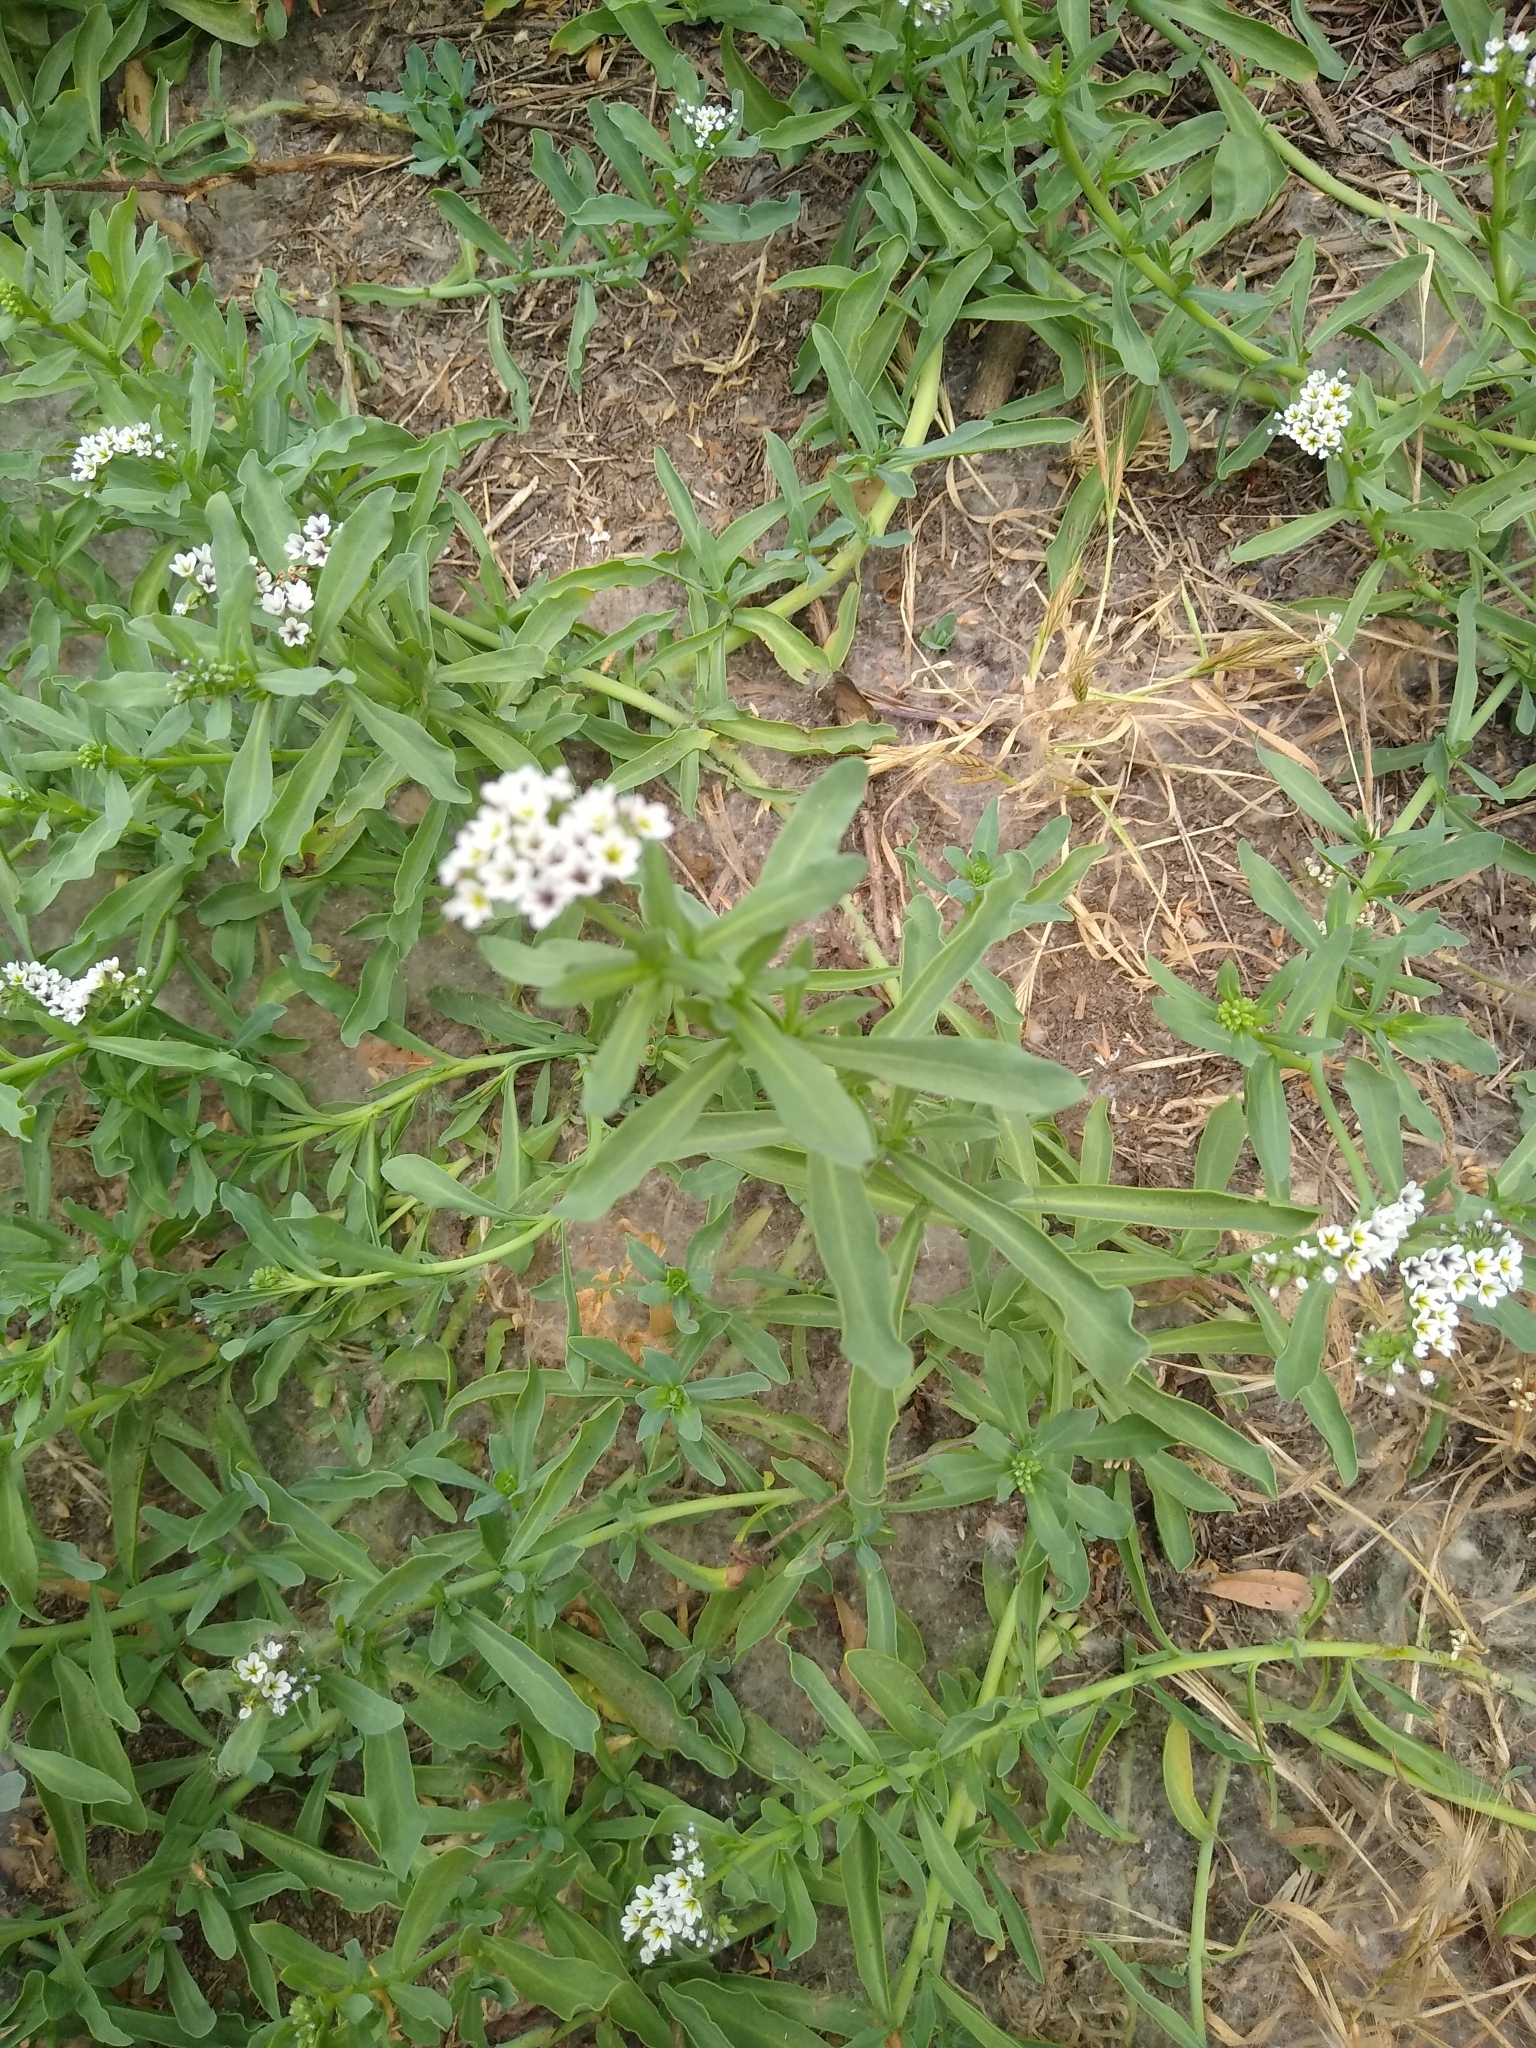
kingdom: Plantae
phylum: Tracheophyta
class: Magnoliopsida
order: Boraginales
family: Heliotropiaceae
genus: Heliotropium
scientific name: Heliotropium curassavicum
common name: Seaside heliotrope
